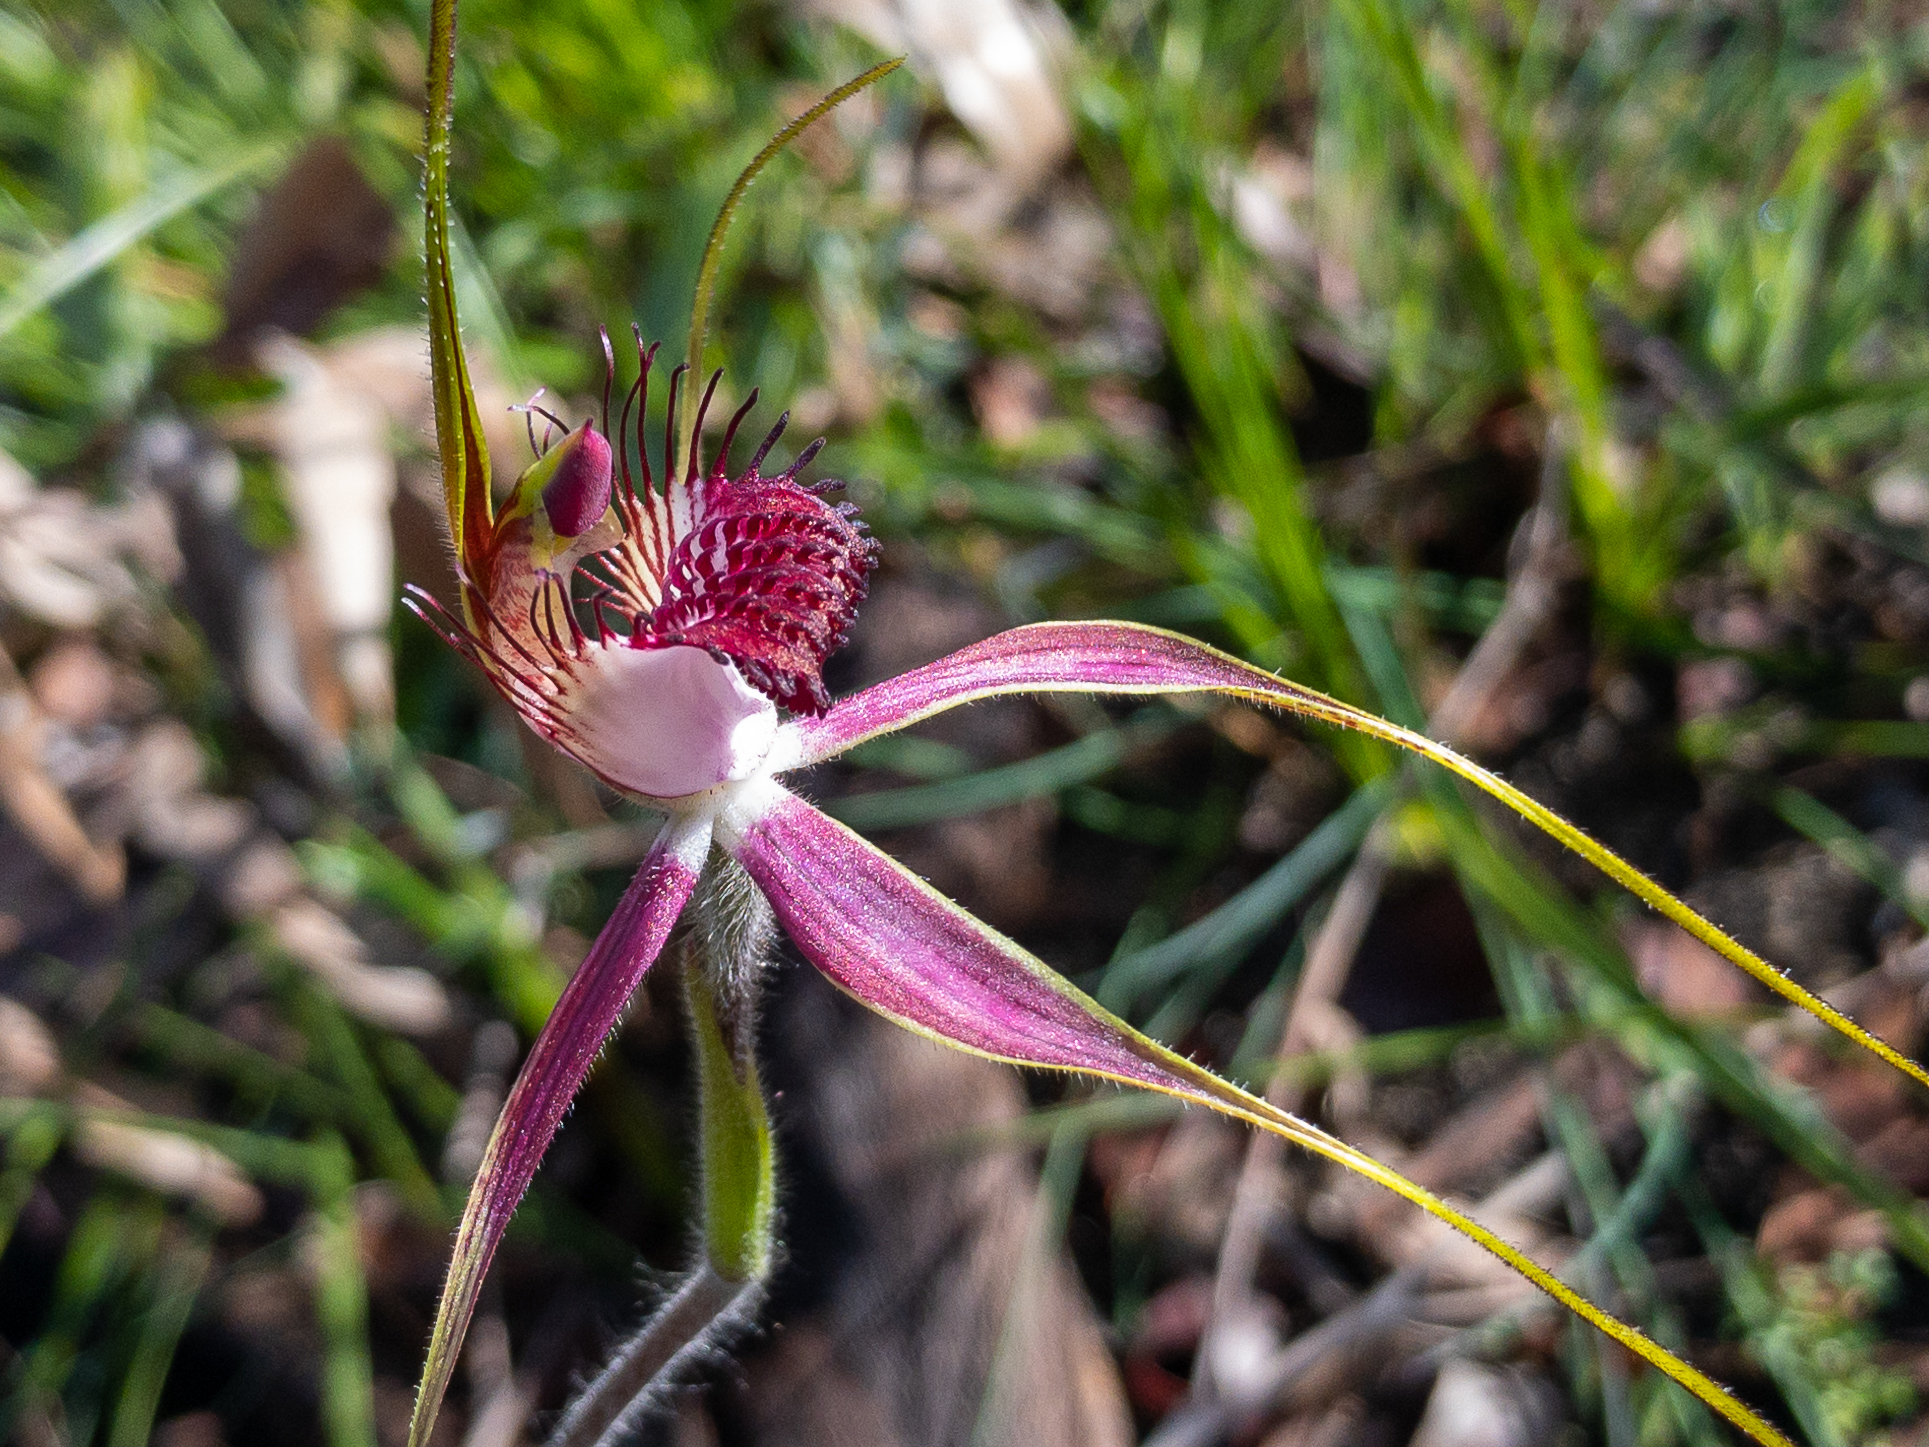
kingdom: Plantae
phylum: Tracheophyta
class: Liliopsida
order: Asparagales
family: Orchidaceae
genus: Caladenia
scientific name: Caladenia arenicola
